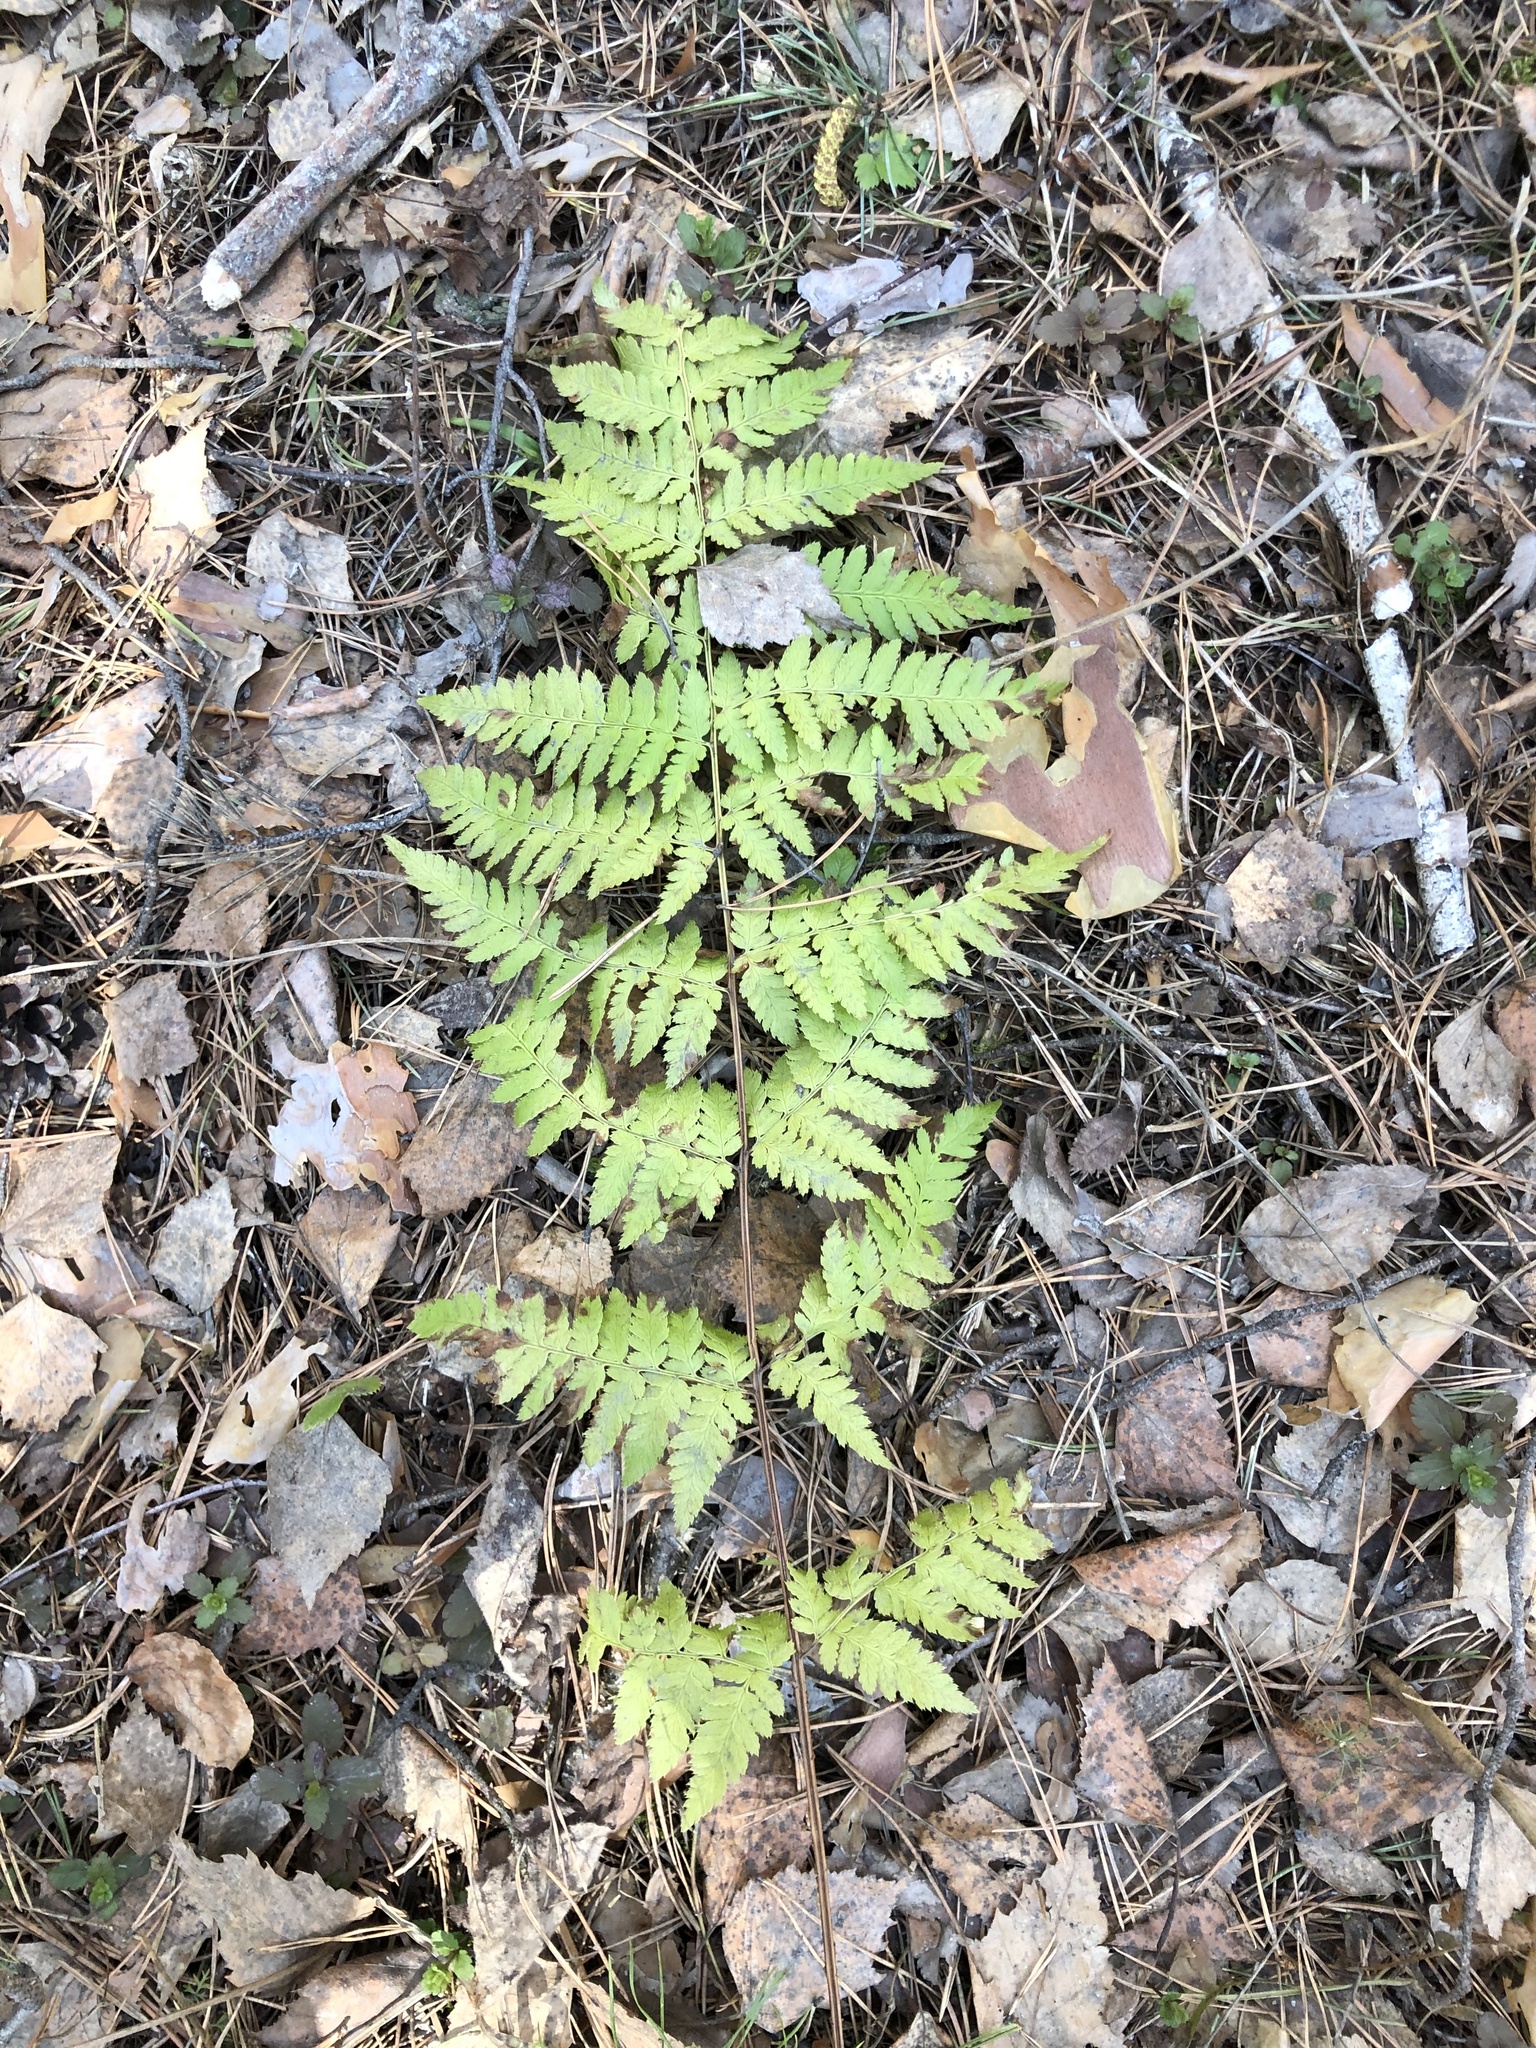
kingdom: Plantae
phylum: Tracheophyta
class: Polypodiopsida
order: Polypodiales
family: Dryopteridaceae
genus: Dryopteris
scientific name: Dryopteris carthusiana
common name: Narrow buckler-fern
